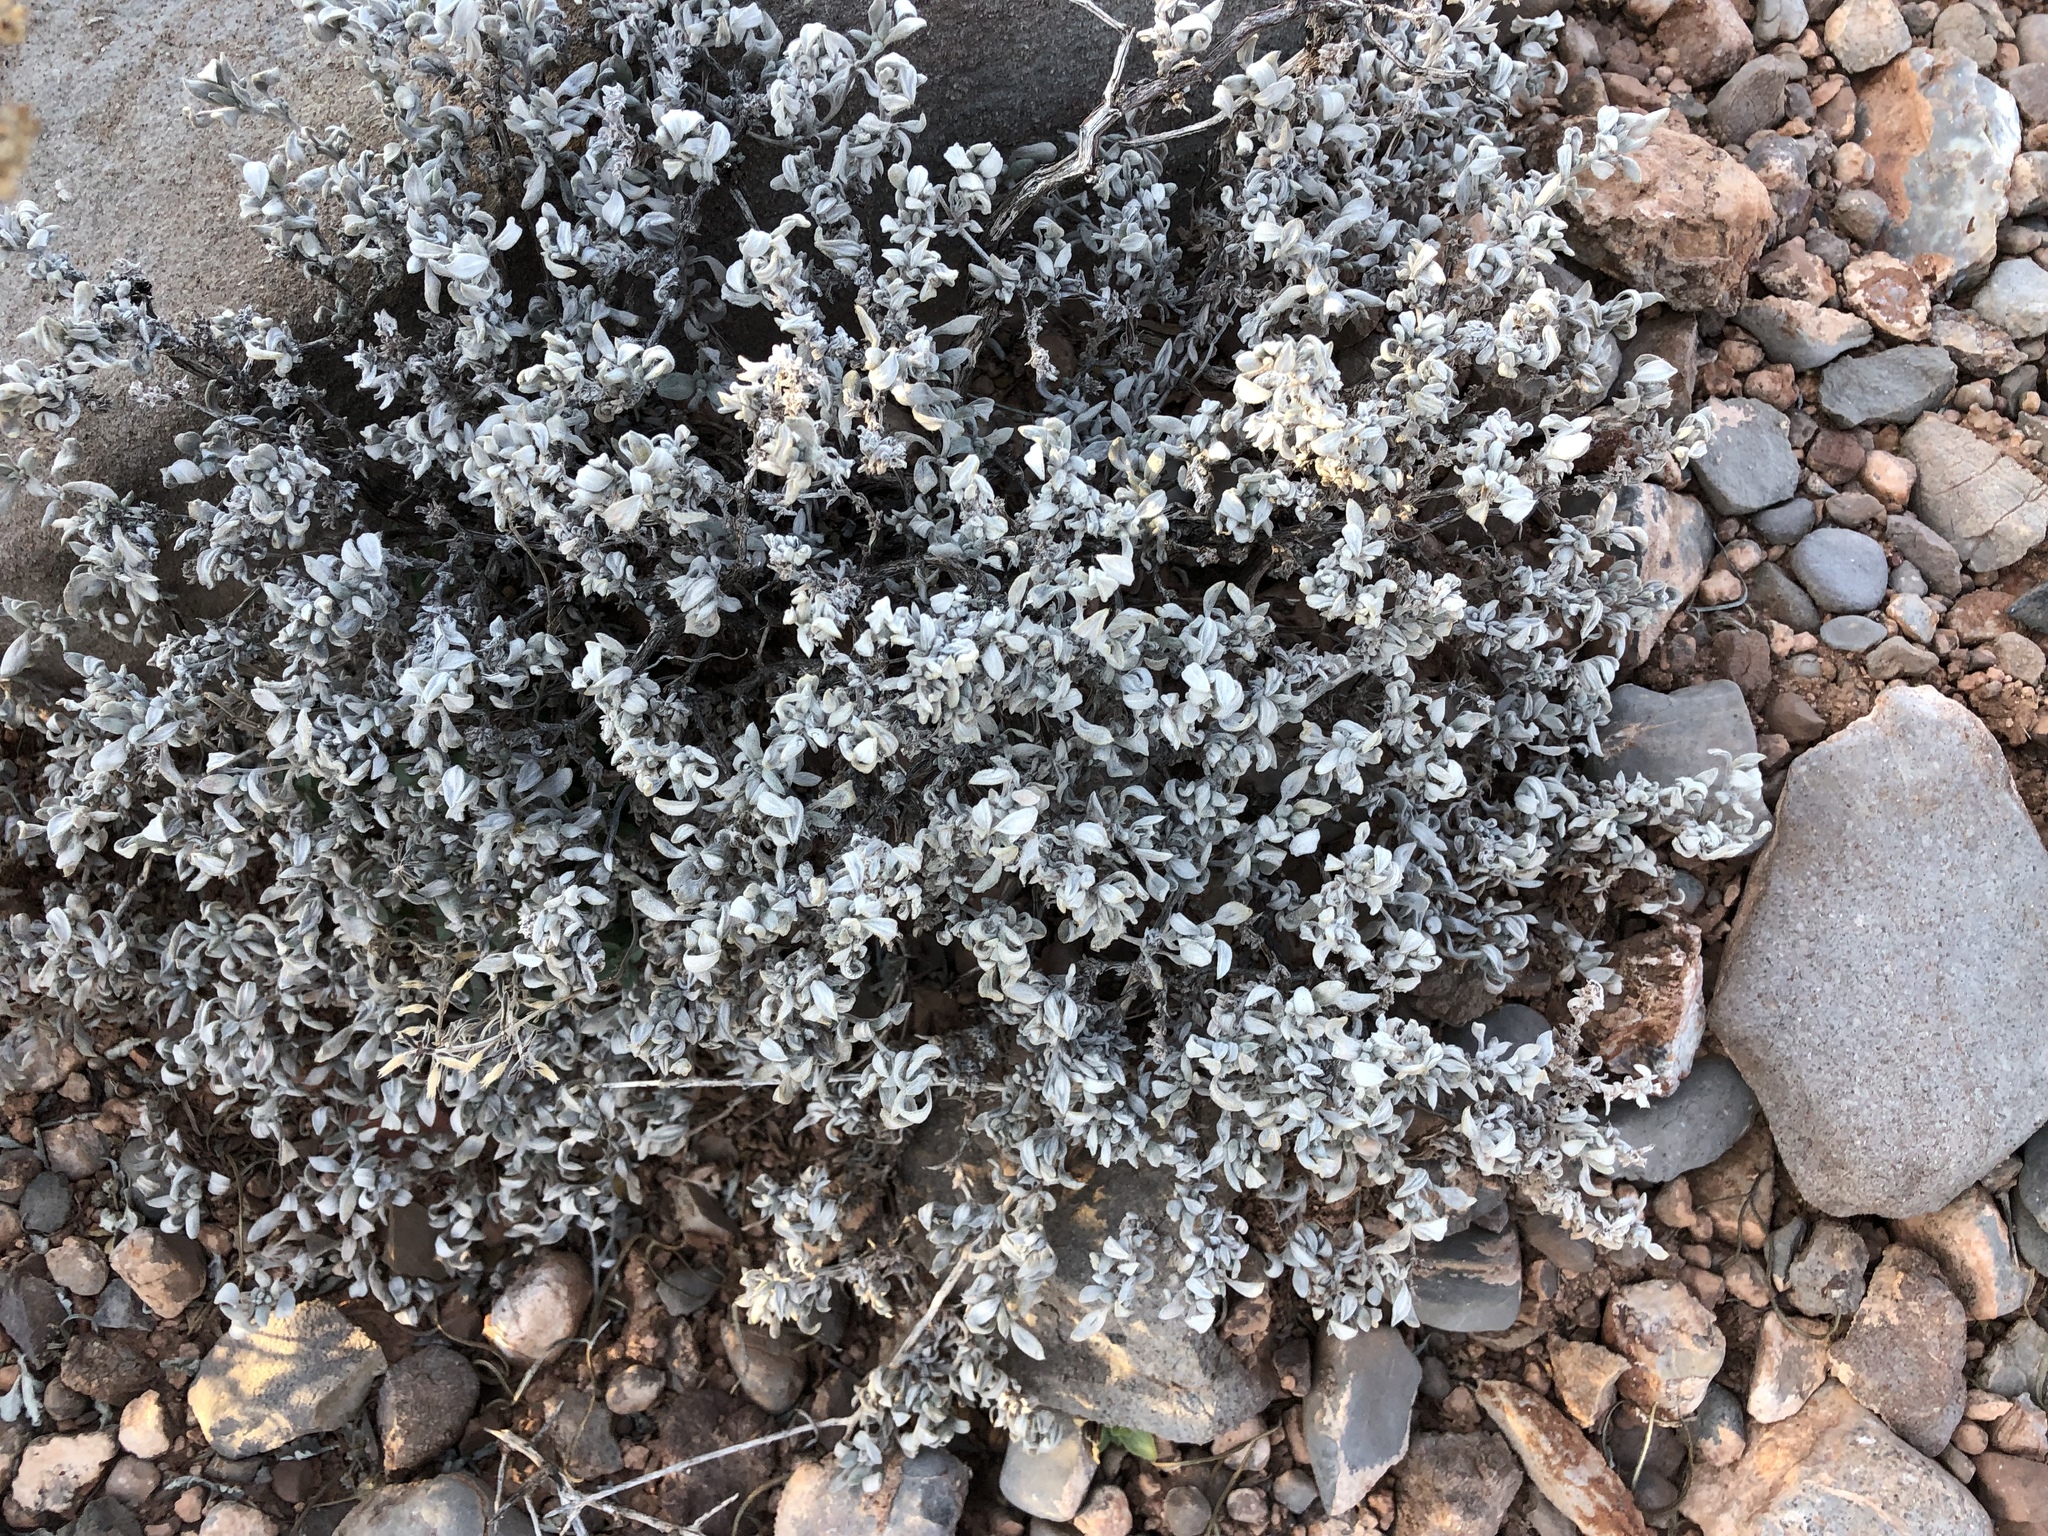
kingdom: Plantae
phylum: Tracheophyta
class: Magnoliopsida
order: Boraginales
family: Ehretiaceae
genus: Tiquilia
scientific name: Tiquilia canescens
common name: Hairy tiquilia
